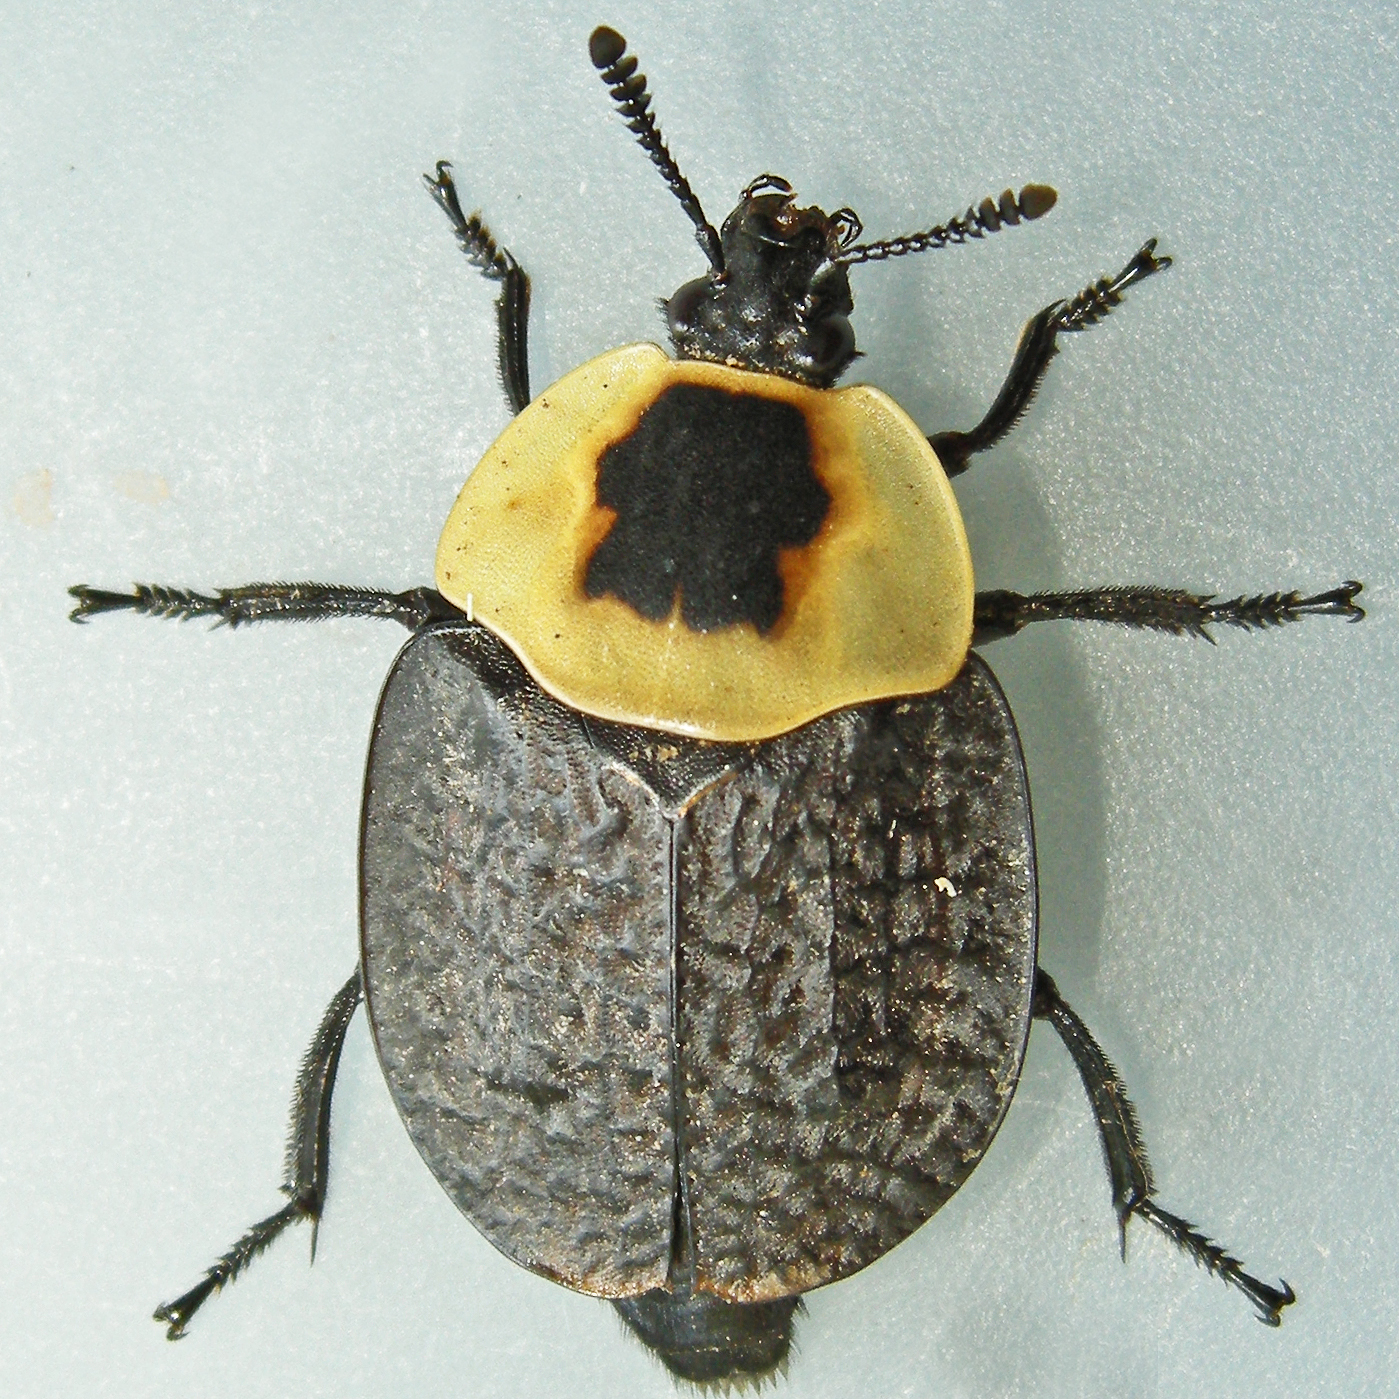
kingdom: Animalia
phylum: Arthropoda
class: Insecta
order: Coleoptera
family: Staphylinidae
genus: Necrophila
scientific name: Necrophila americana
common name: American carrion beetle
